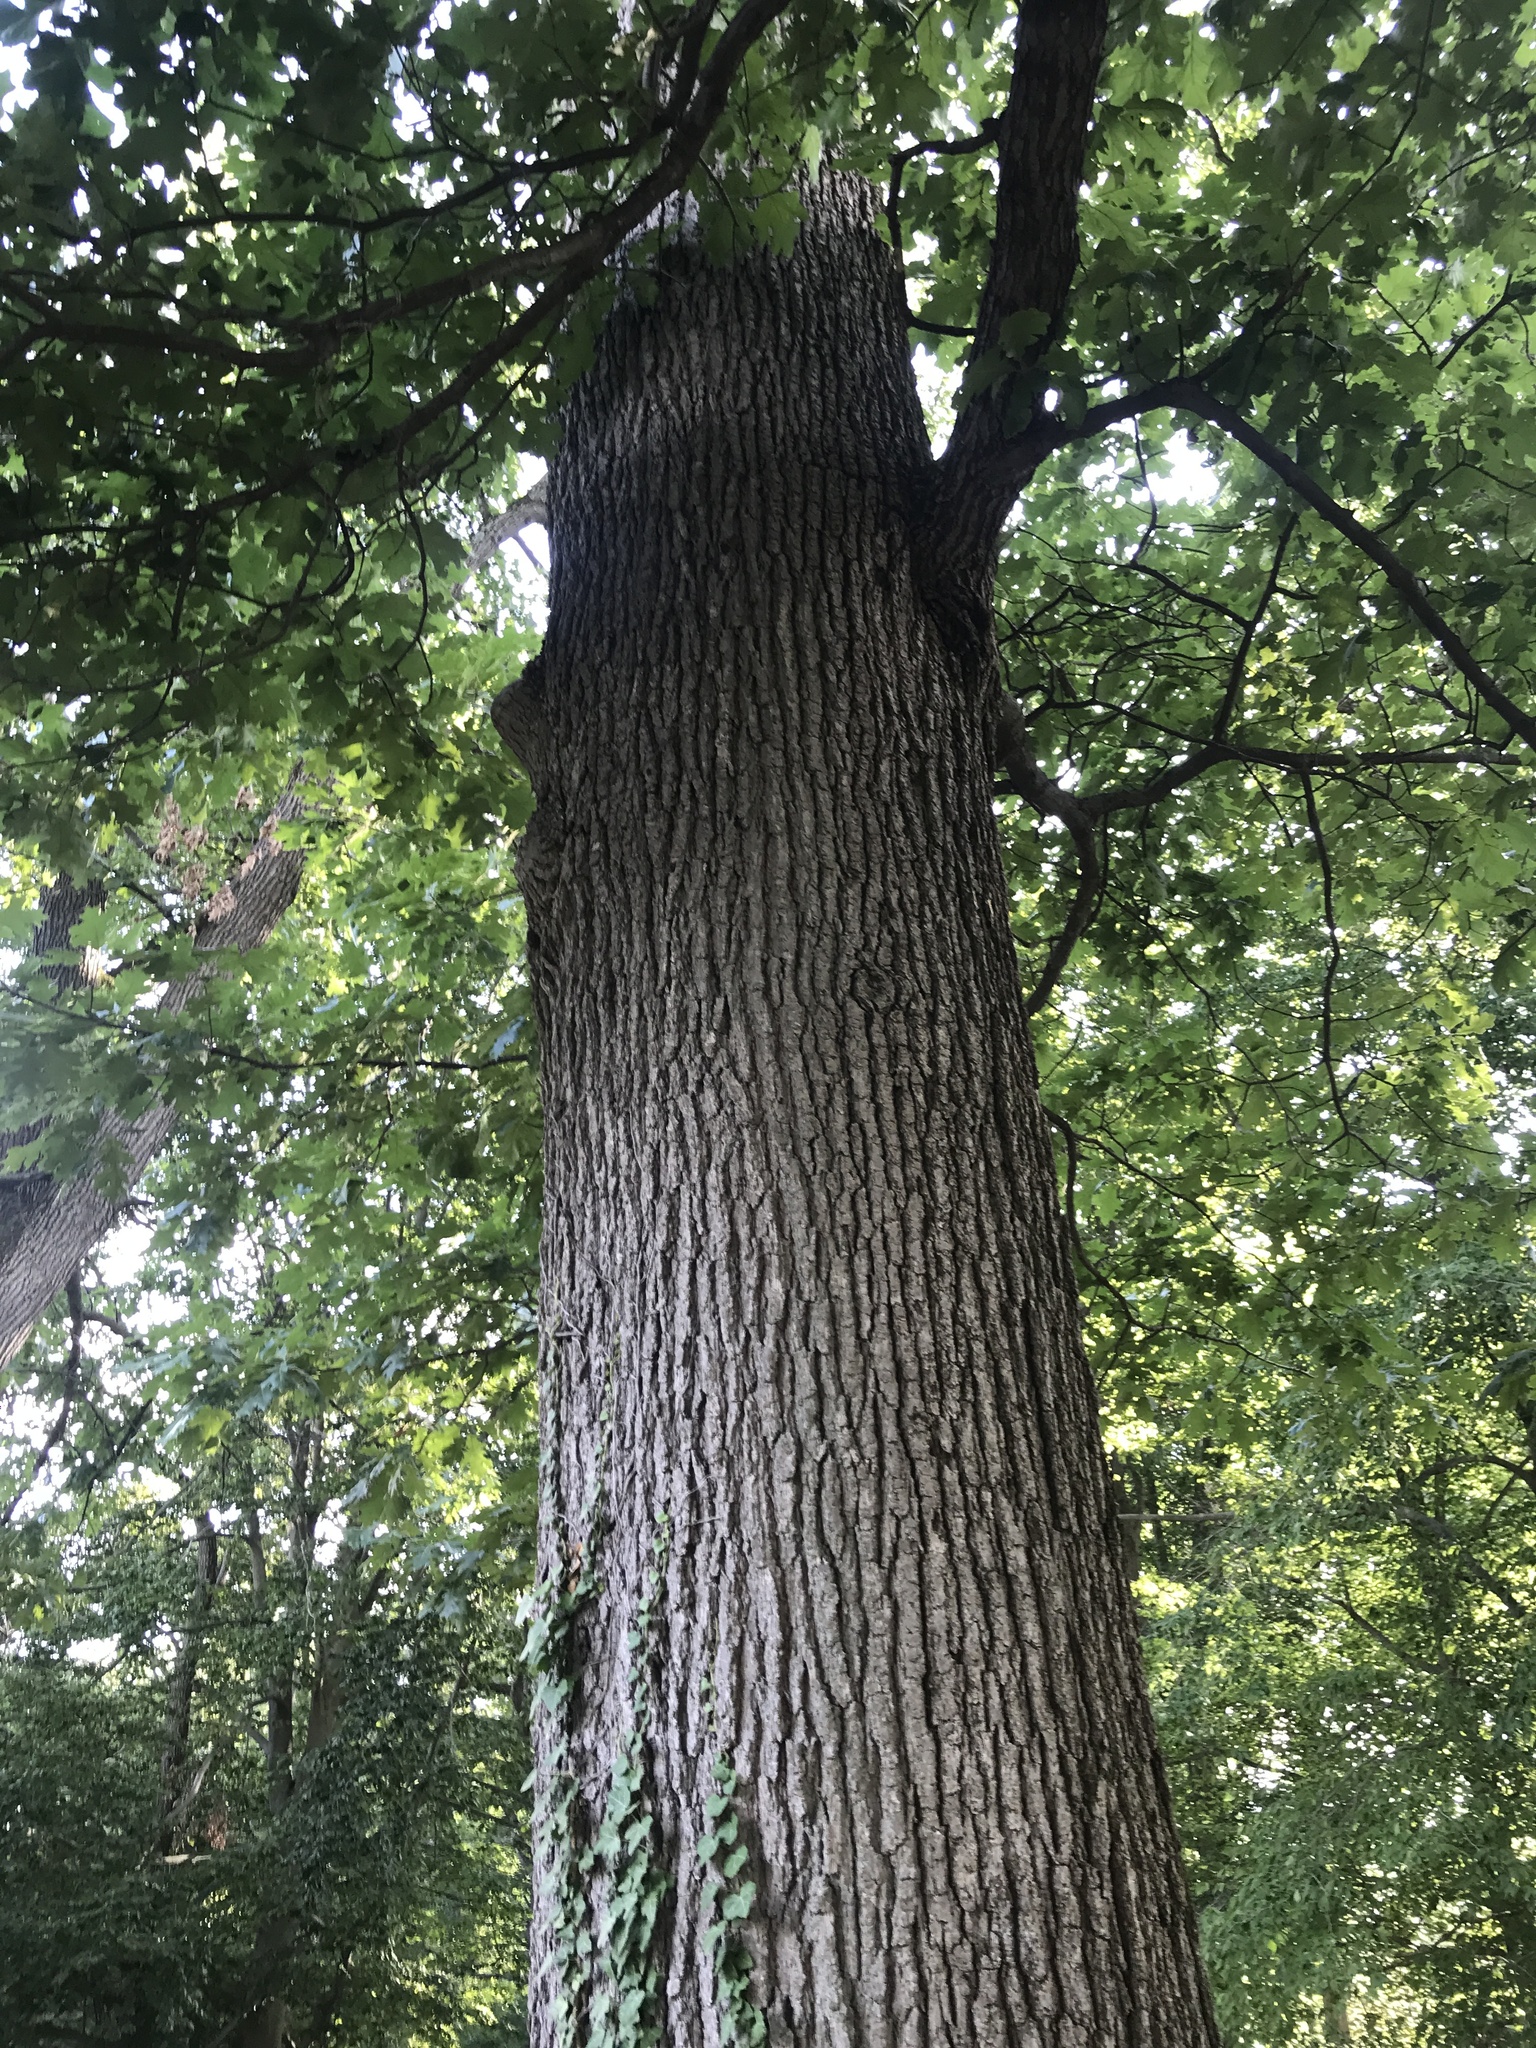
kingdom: Plantae
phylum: Tracheophyta
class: Magnoliopsida
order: Fagales
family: Fagaceae
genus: Quercus
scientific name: Quercus velutina
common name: Black oak
